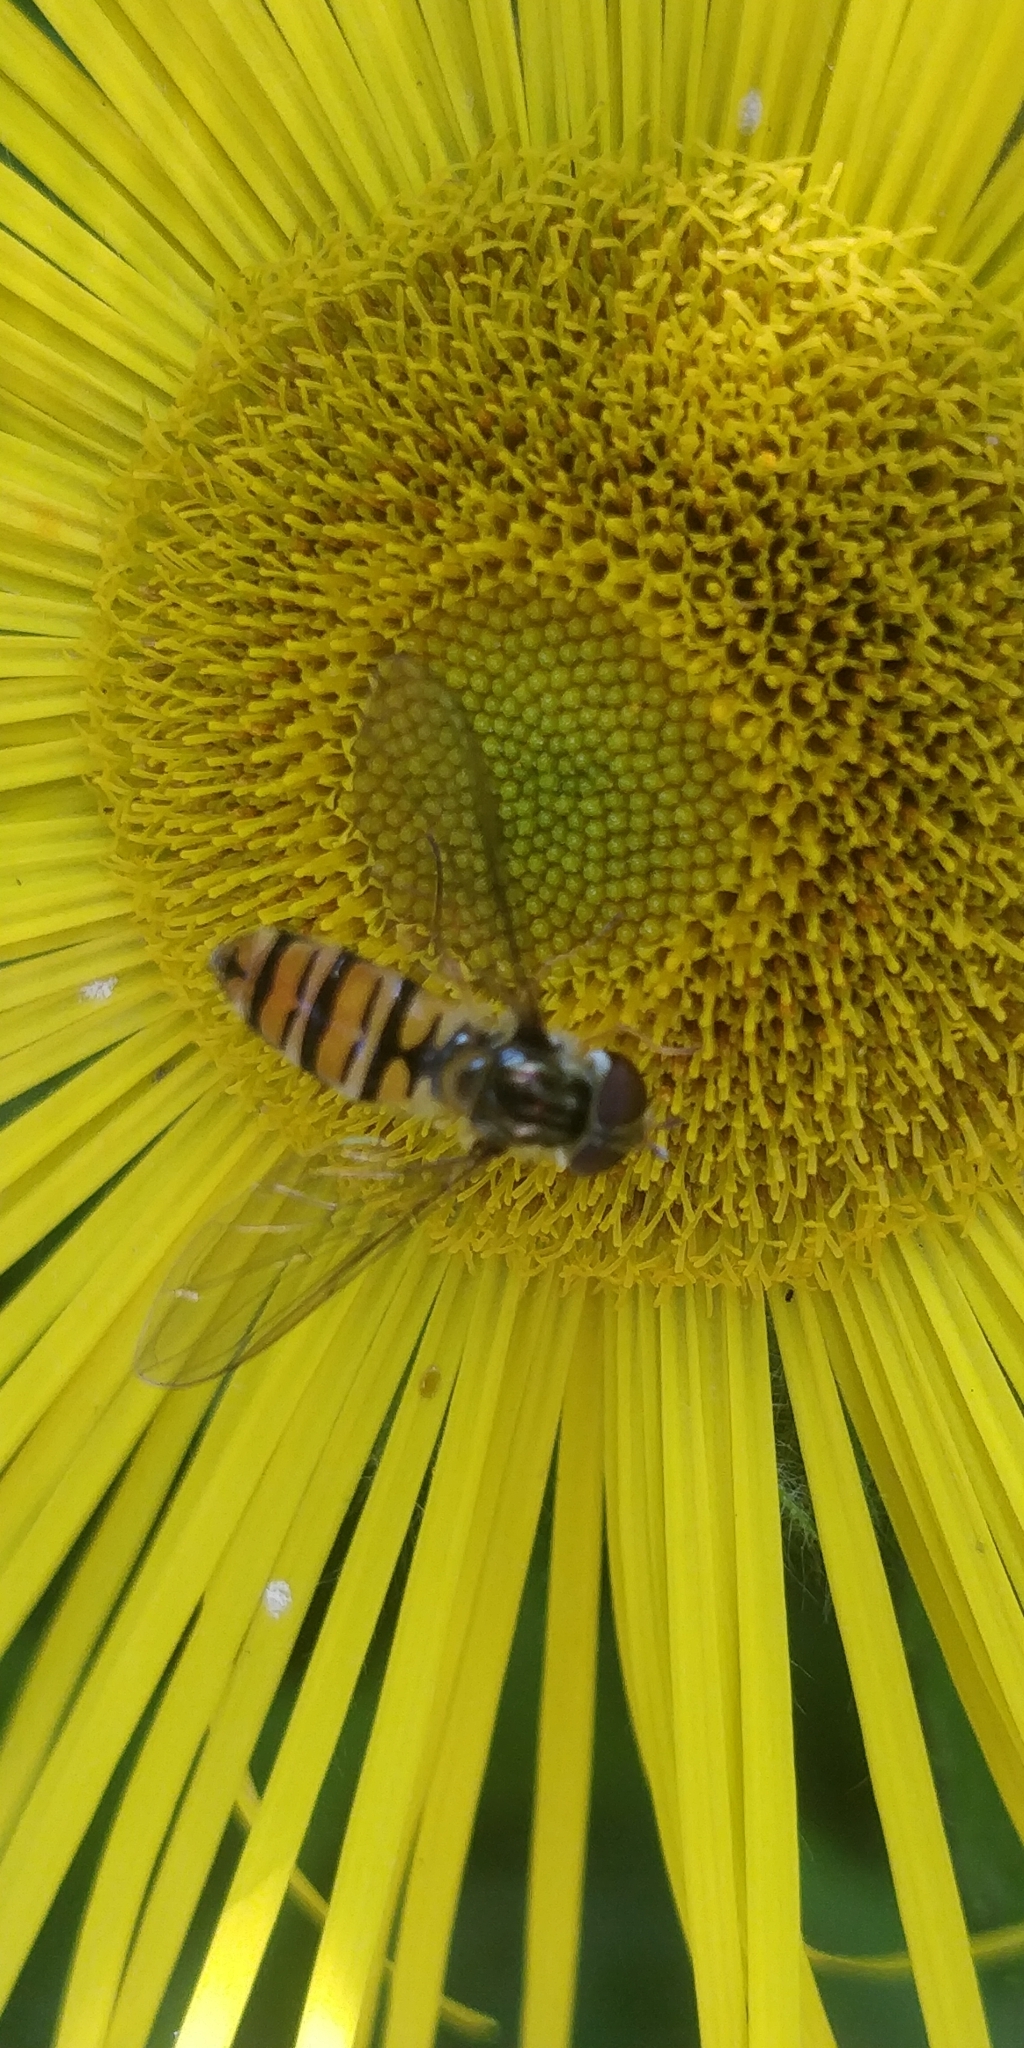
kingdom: Animalia
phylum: Arthropoda
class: Insecta
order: Diptera
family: Syrphidae
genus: Episyrphus
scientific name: Episyrphus balteatus
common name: Marmalade hoverfly
